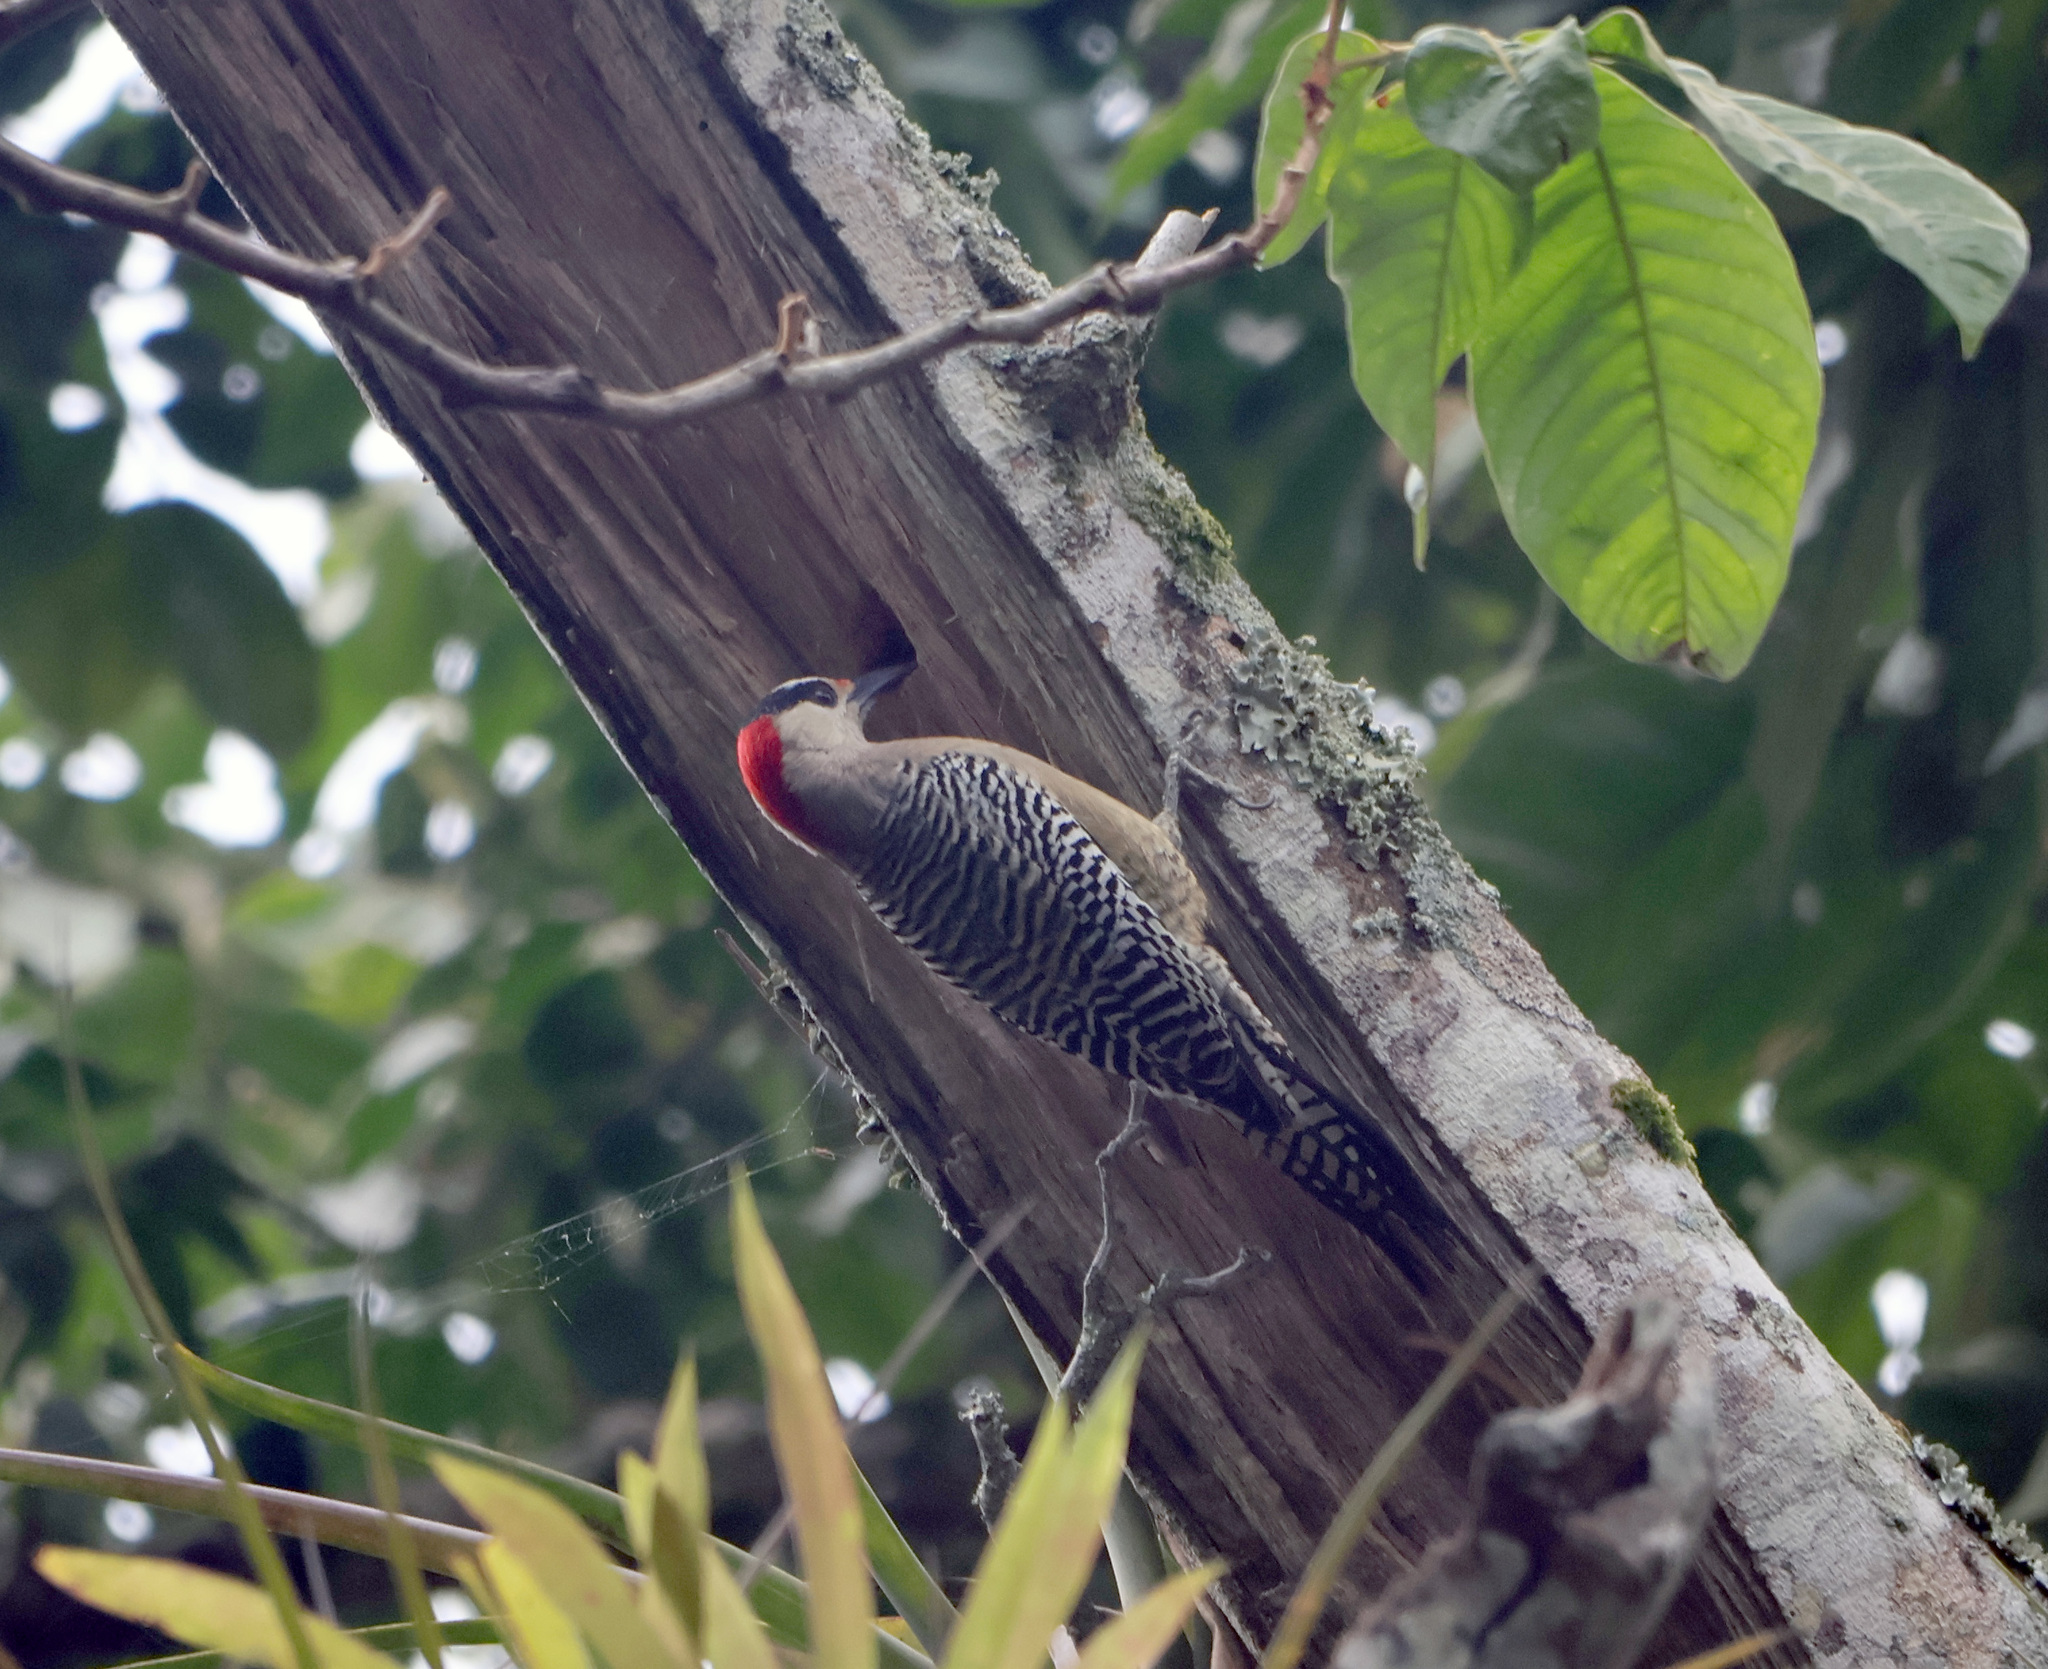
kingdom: Animalia
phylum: Chordata
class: Aves
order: Piciformes
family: Picidae
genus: Melanerpes
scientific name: Melanerpes superciliaris
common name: West indian woodpecker
